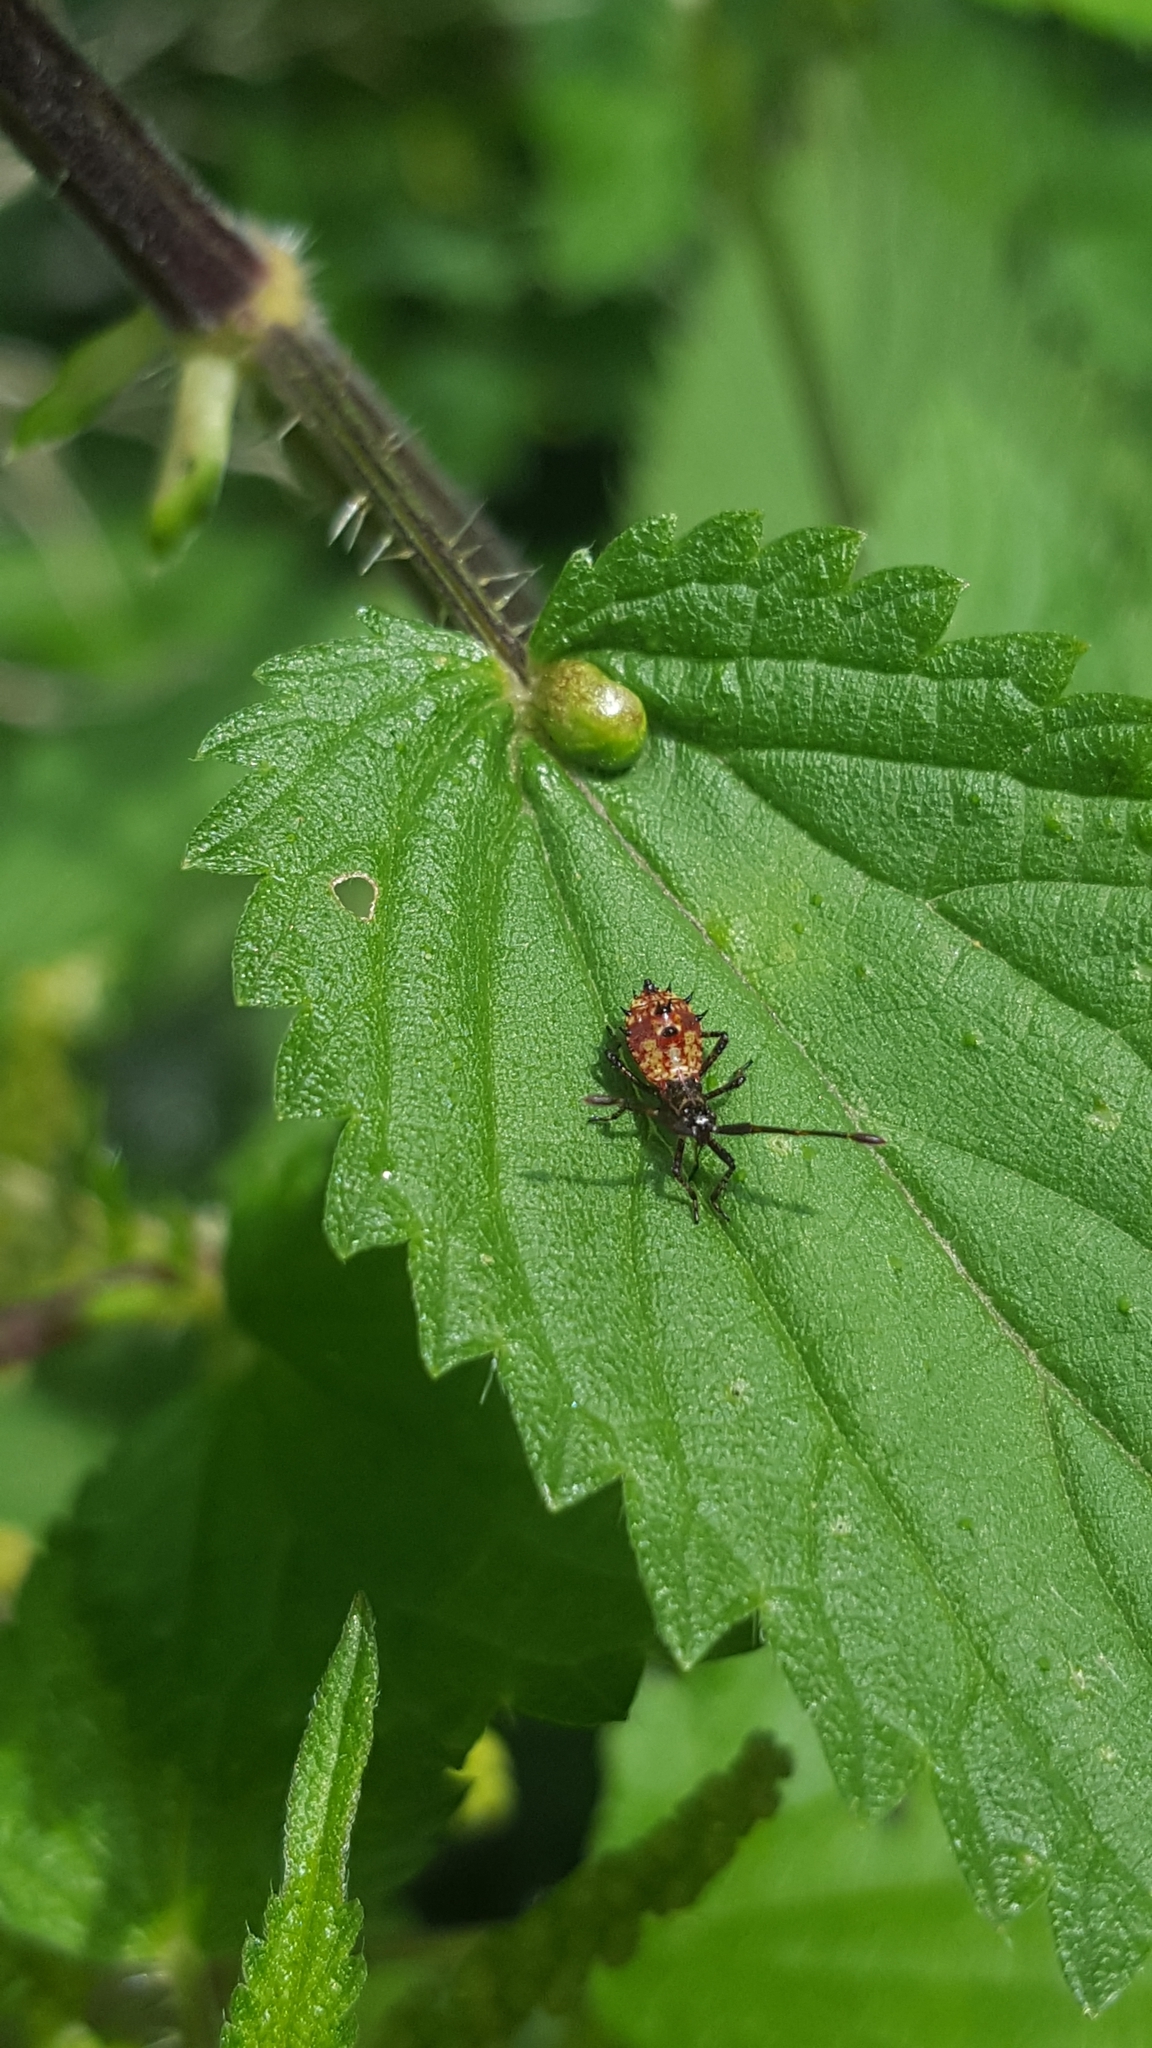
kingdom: Animalia
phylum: Arthropoda
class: Insecta
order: Hemiptera
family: Coreidae
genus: Coreus
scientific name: Coreus marginatus
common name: Dock bug
